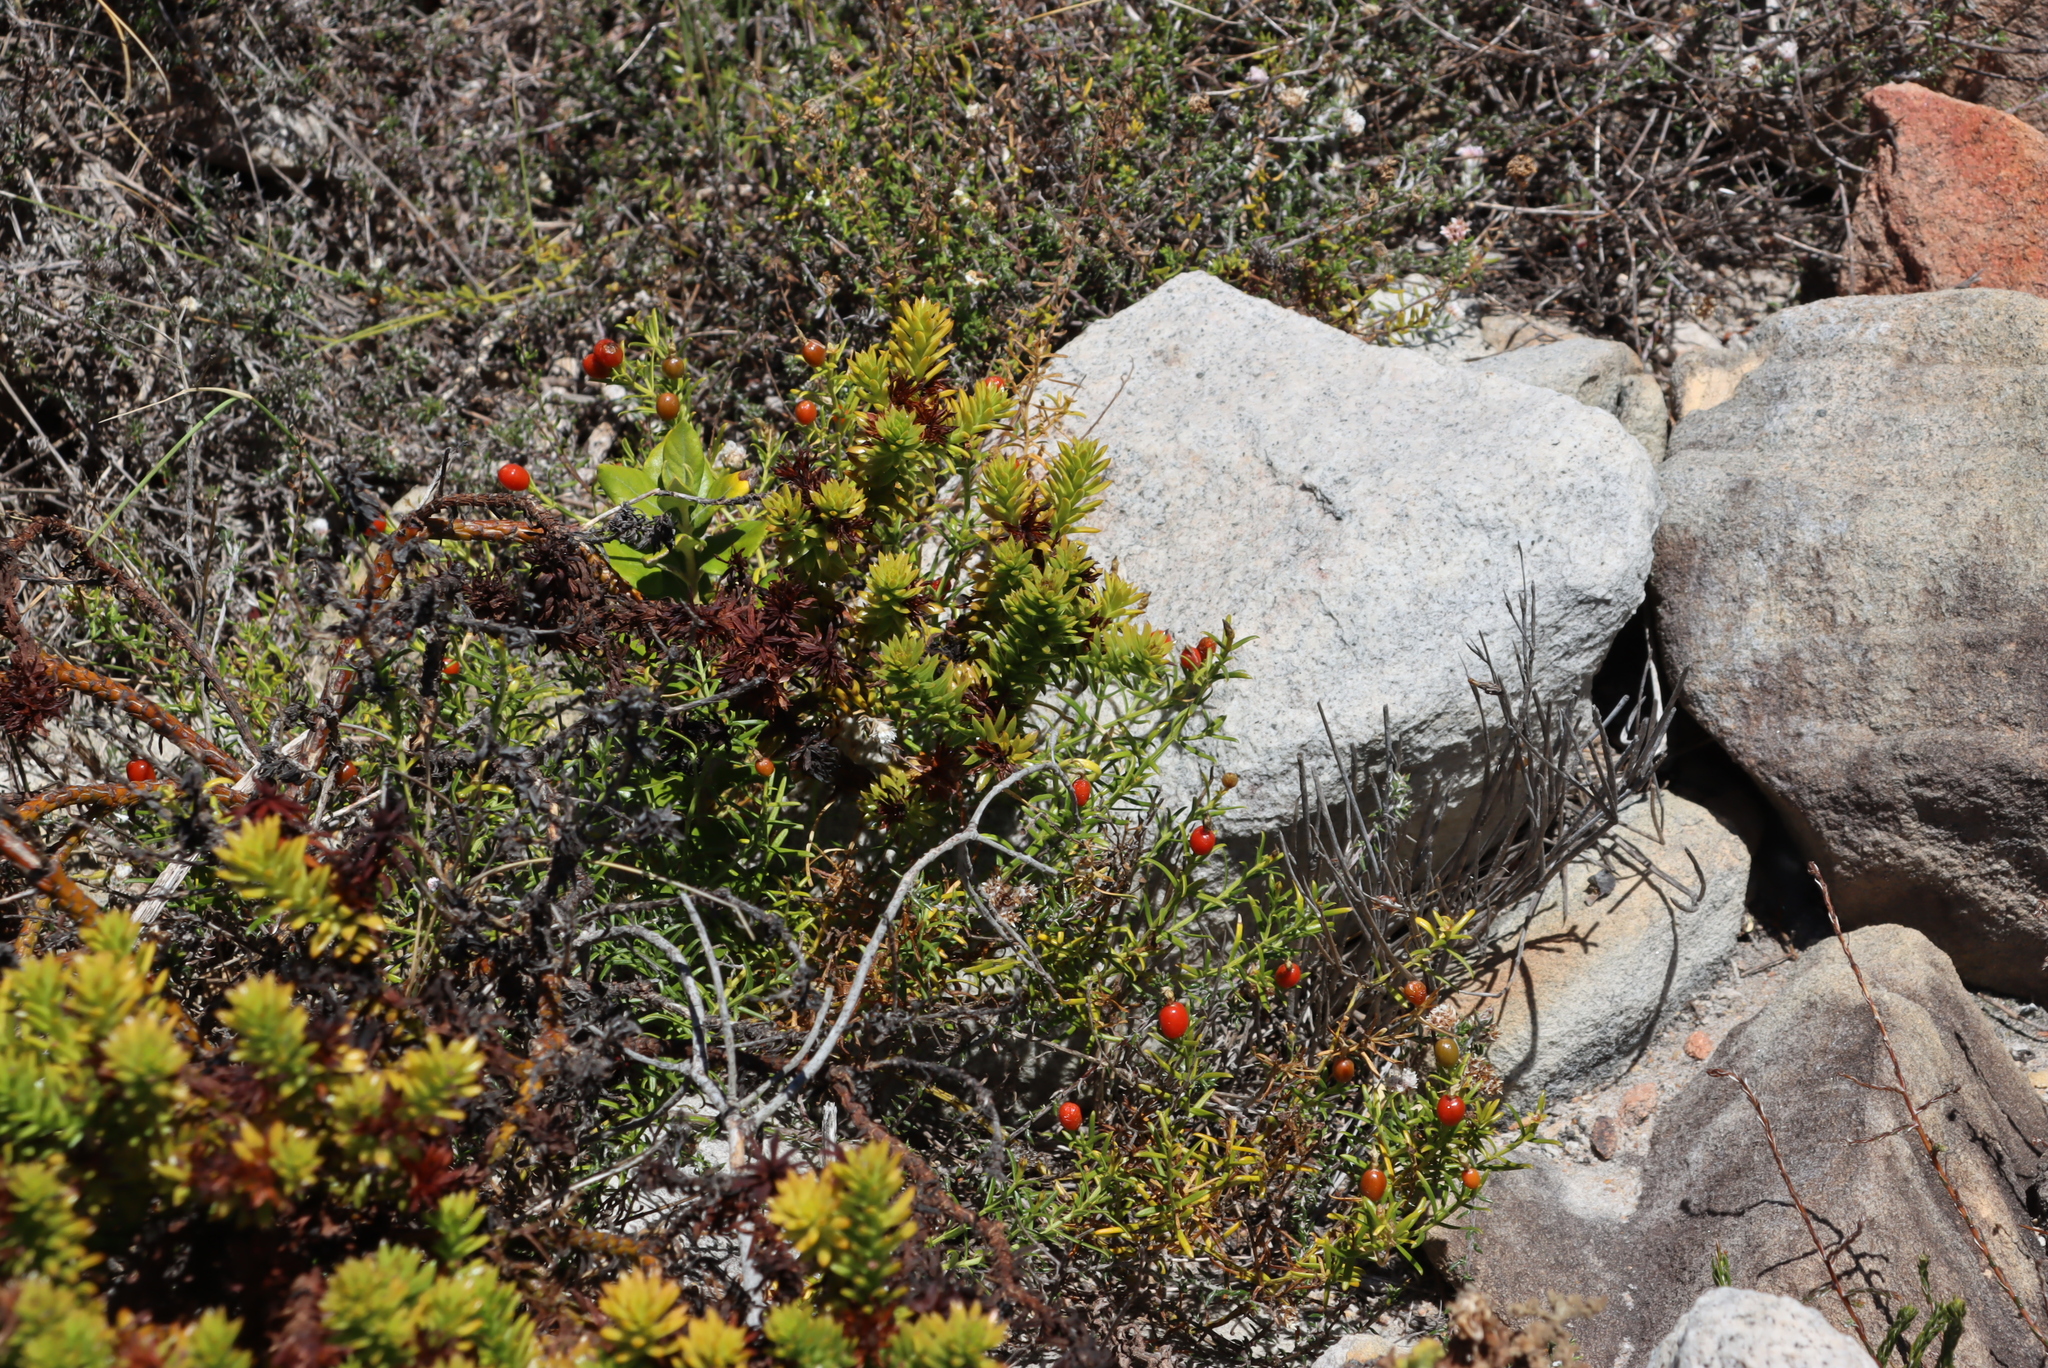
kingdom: Plantae
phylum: Tracheophyta
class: Magnoliopsida
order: Gentianales
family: Gentianaceae
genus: Chironia
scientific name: Chironia baccifera
